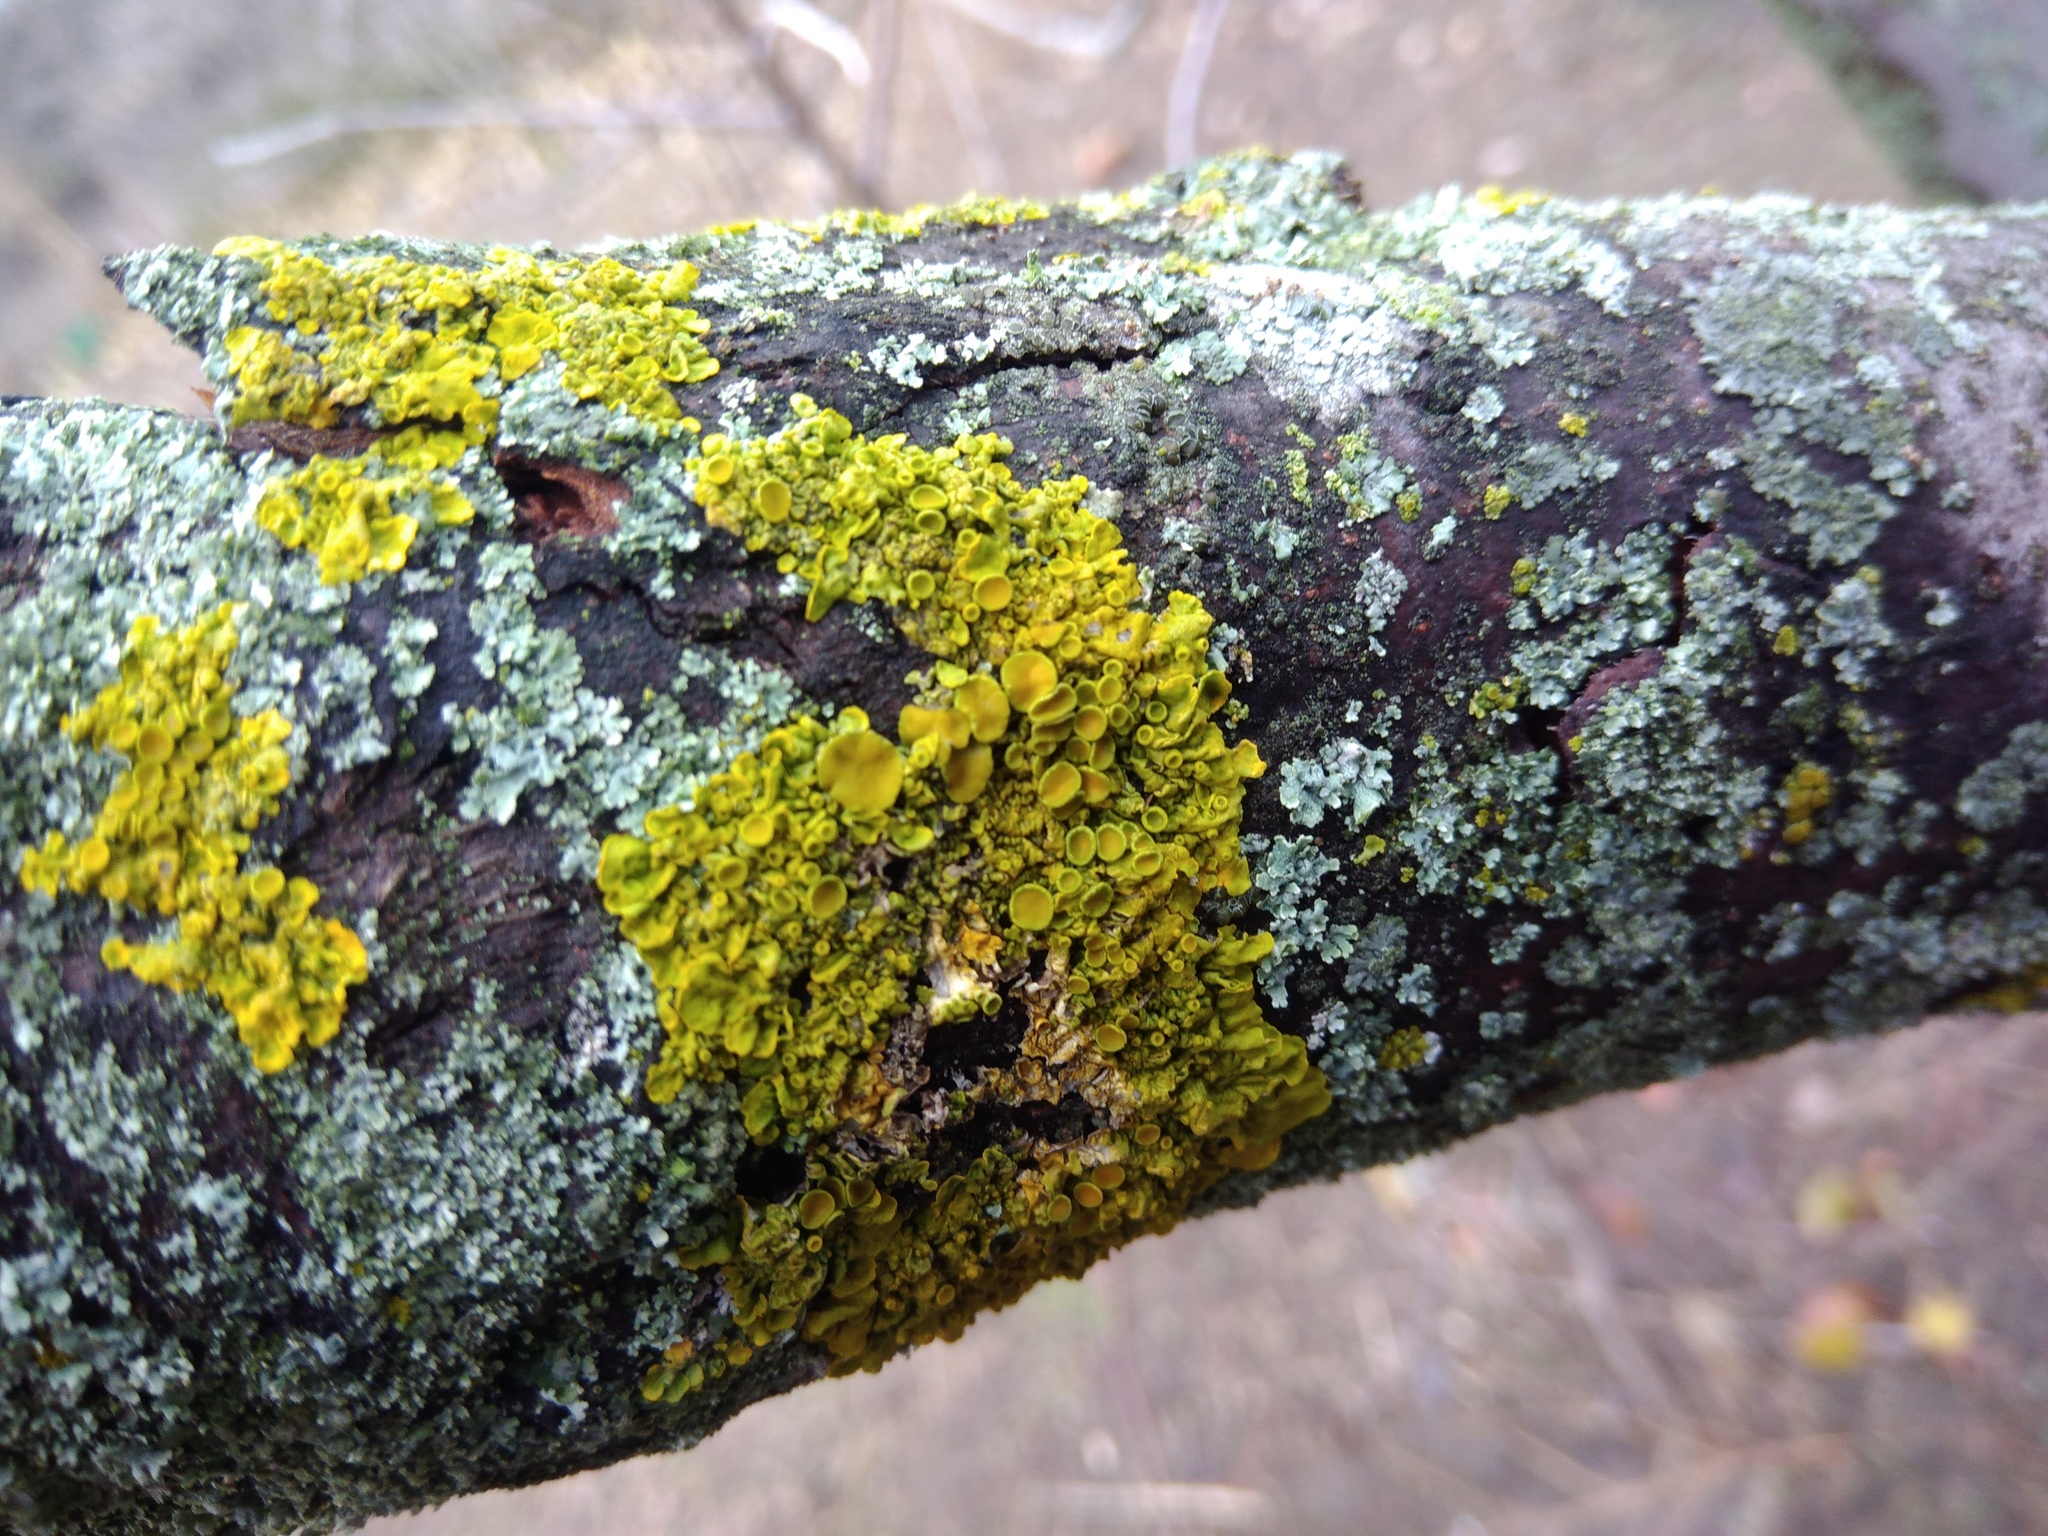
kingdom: Fungi
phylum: Ascomycota
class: Lecanoromycetes
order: Teloschistales
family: Teloschistaceae
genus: Xanthoria
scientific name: Xanthoria parietina
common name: Common orange lichen
